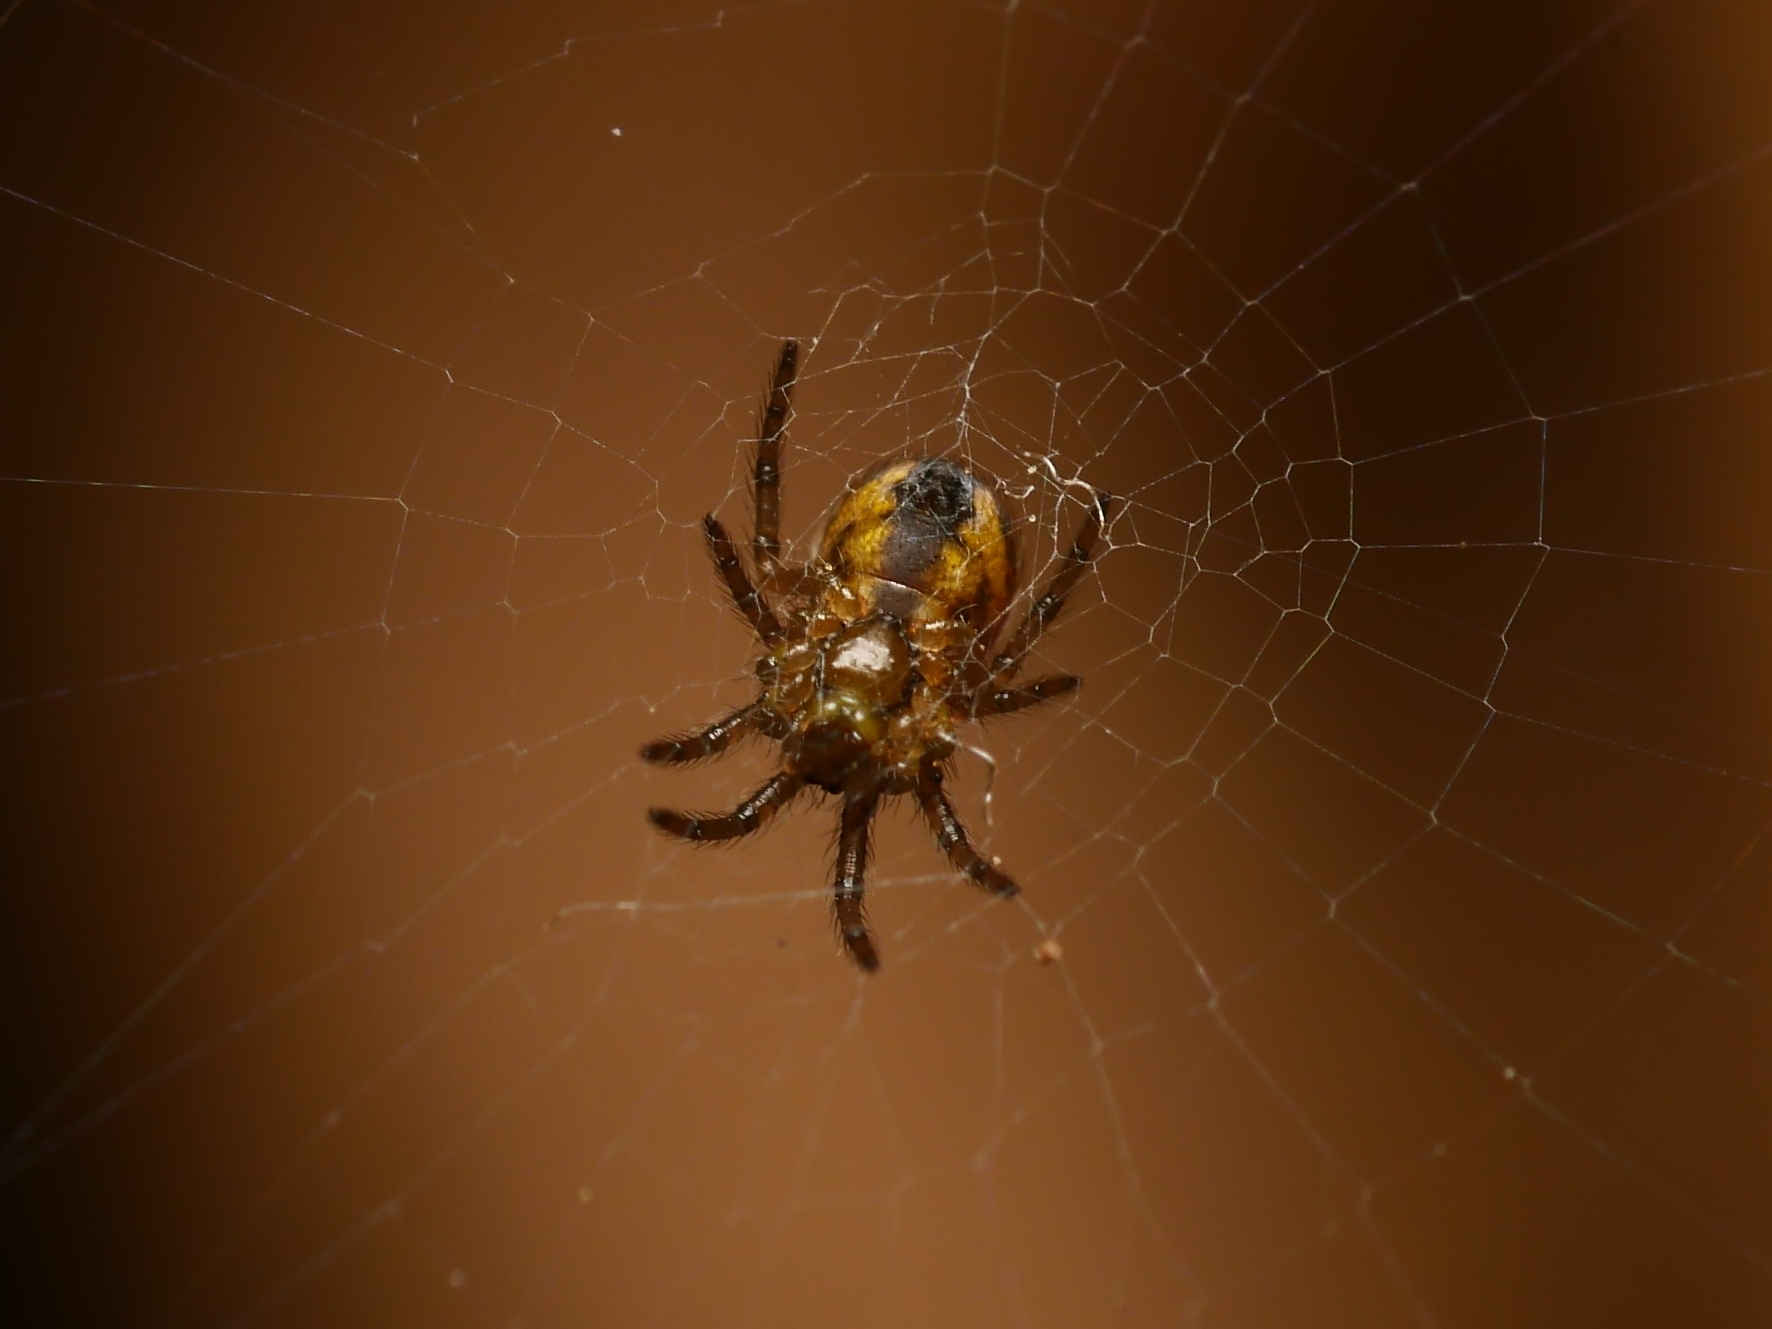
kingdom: Animalia
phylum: Arthropoda
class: Arachnida
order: Araneae
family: Araneidae
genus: Zilla
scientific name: Zilla diodia
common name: Zilla diodia
